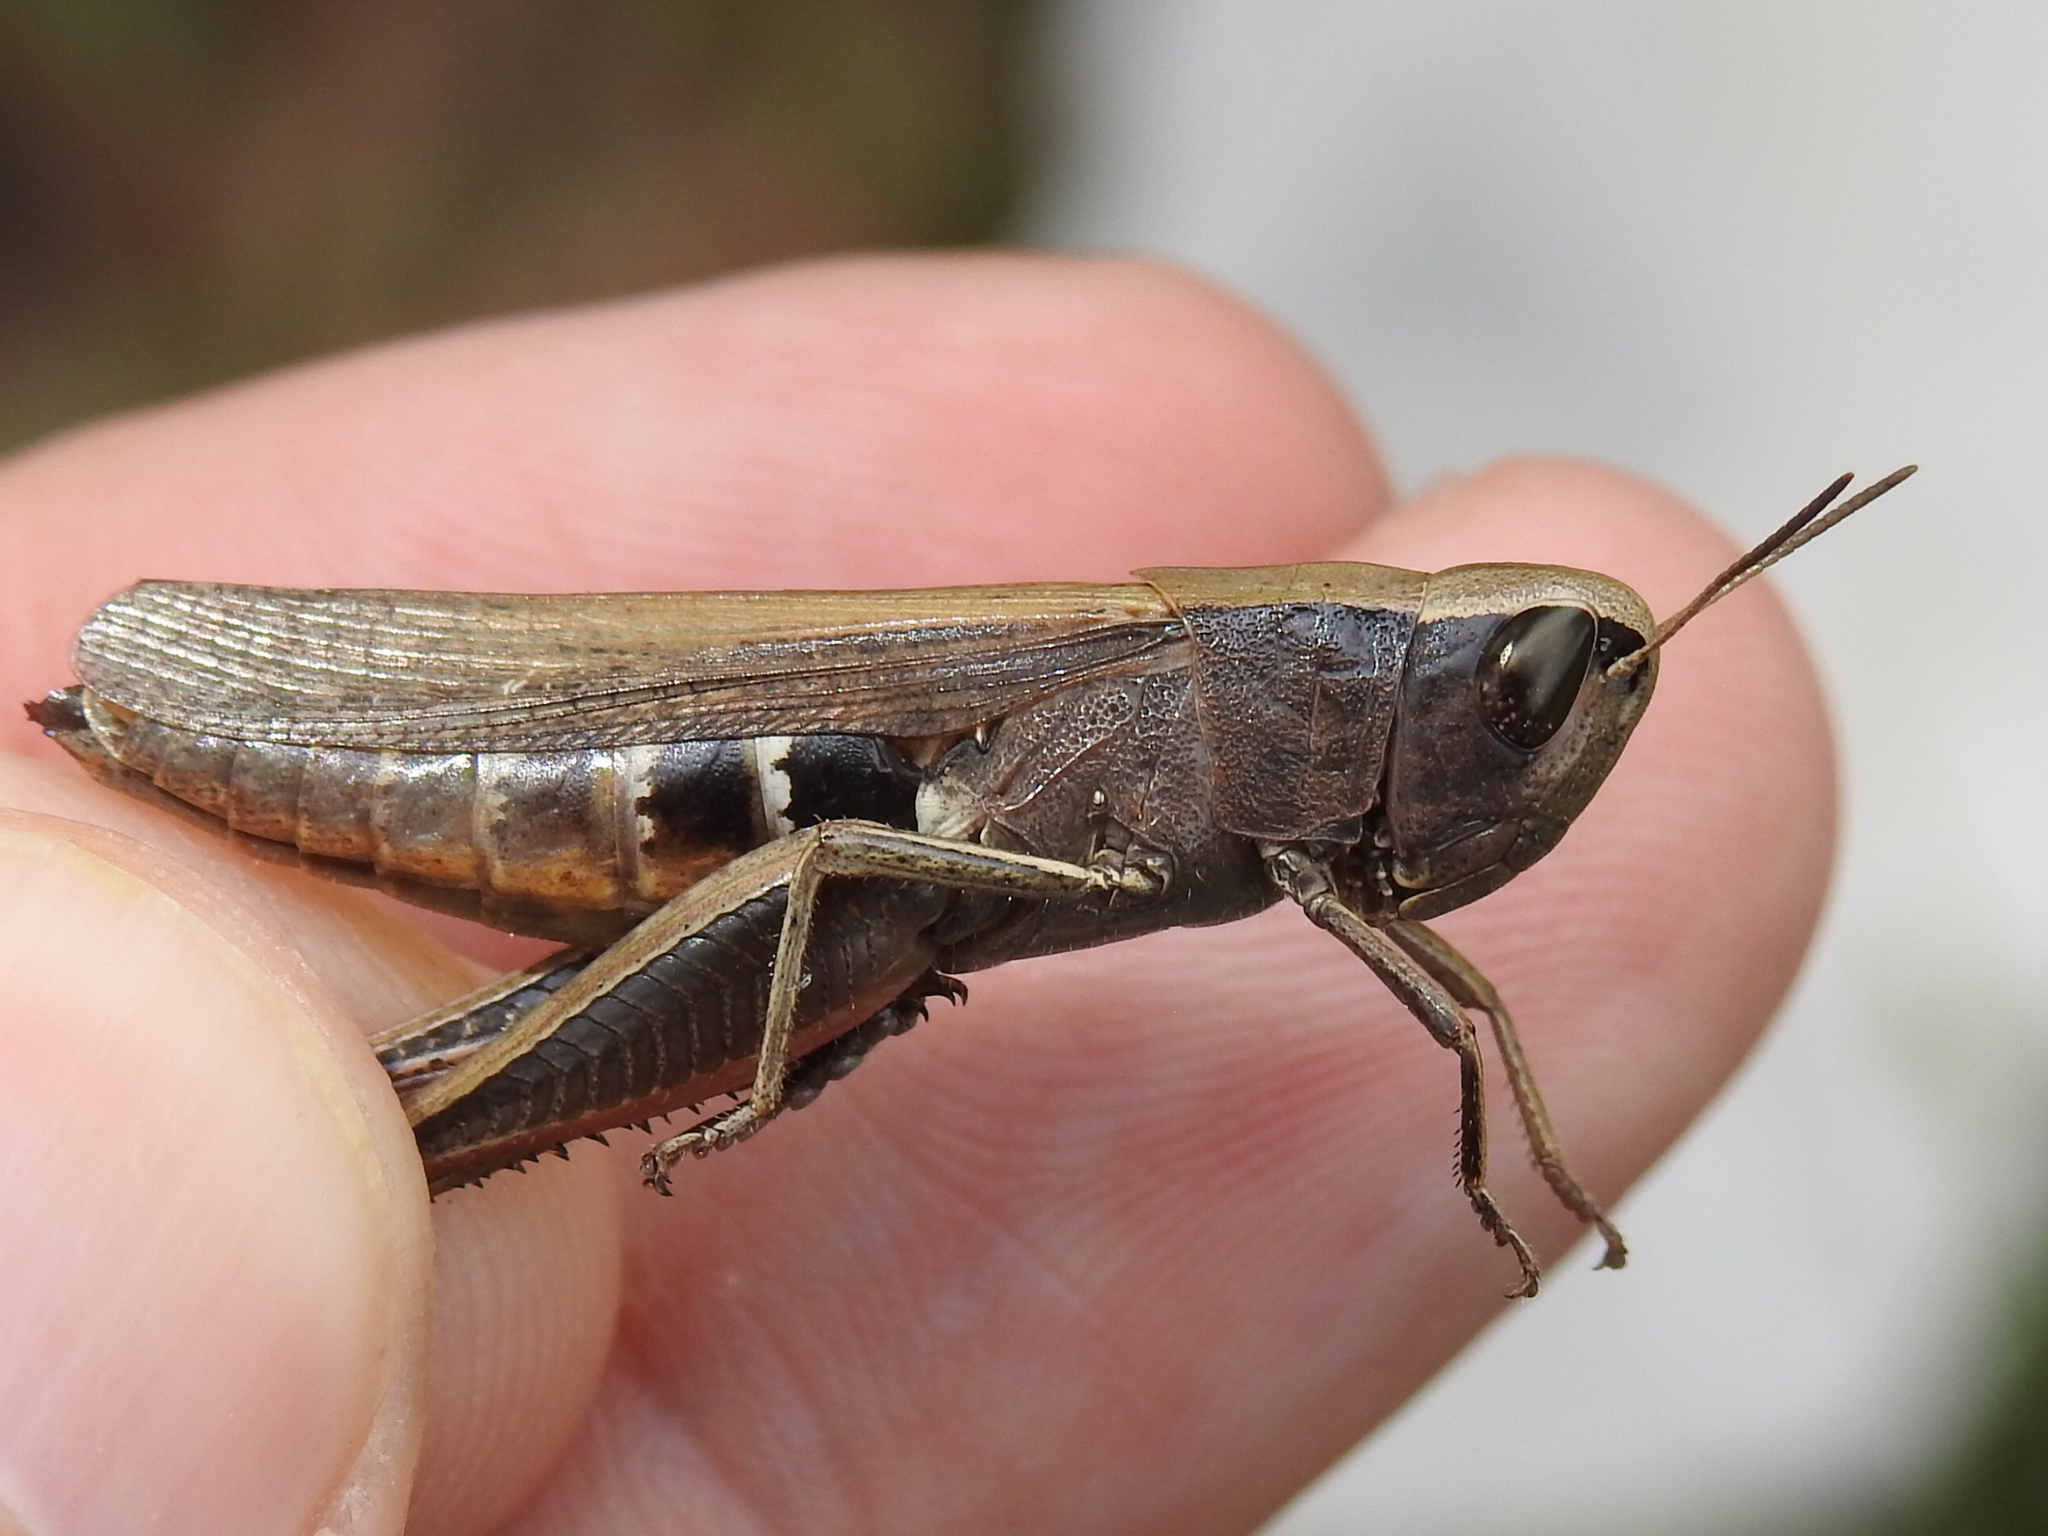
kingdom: Animalia
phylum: Arthropoda
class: Insecta
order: Orthoptera
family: Acrididae
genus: Amblytropidia
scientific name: Amblytropidia mysteca
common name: Brown winter grasshopper
